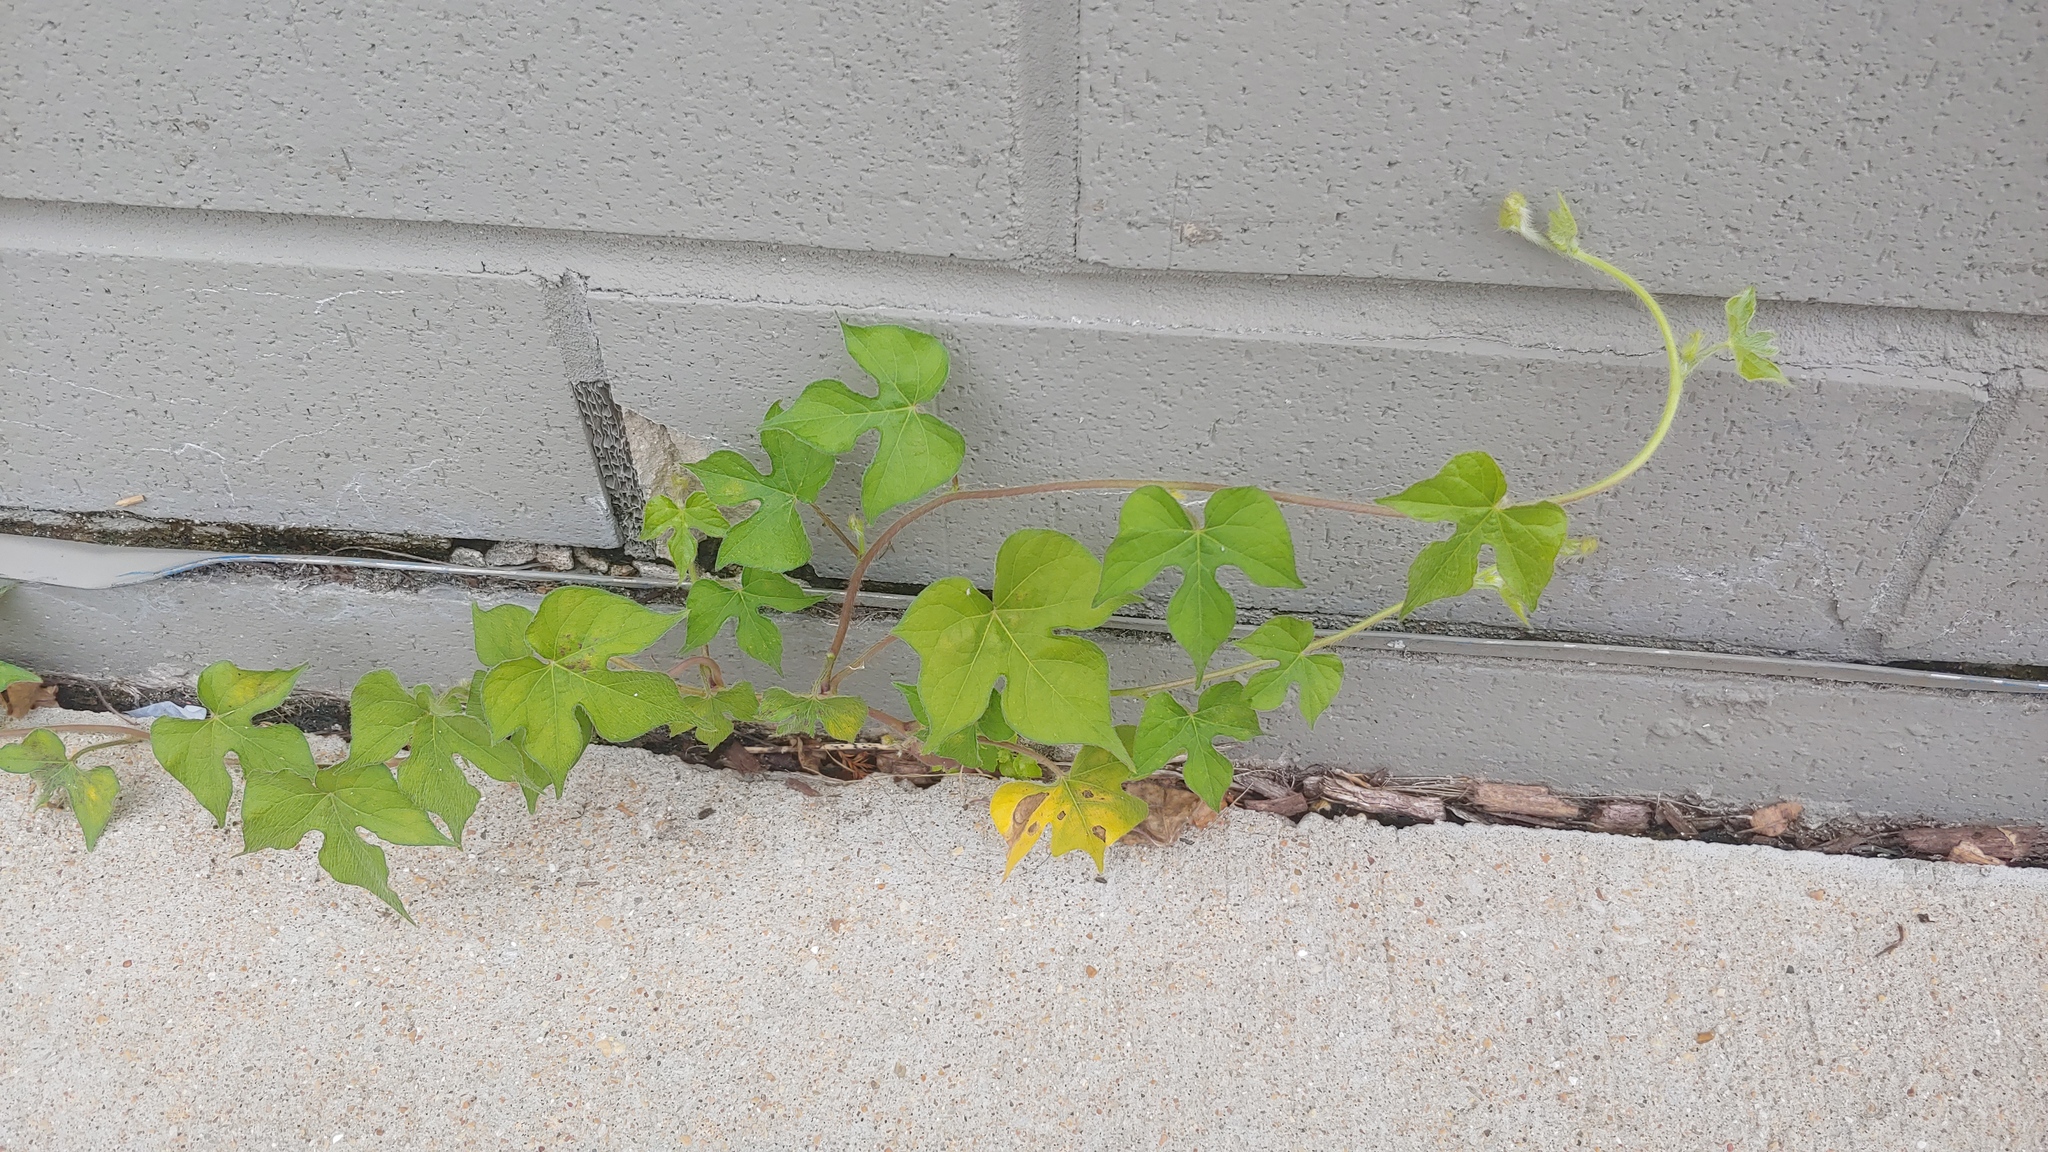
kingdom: Plantae
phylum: Tracheophyta
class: Magnoliopsida
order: Solanales
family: Convolvulaceae
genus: Ipomoea
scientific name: Ipomoea hederacea
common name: Ivy-leaved morning-glory
